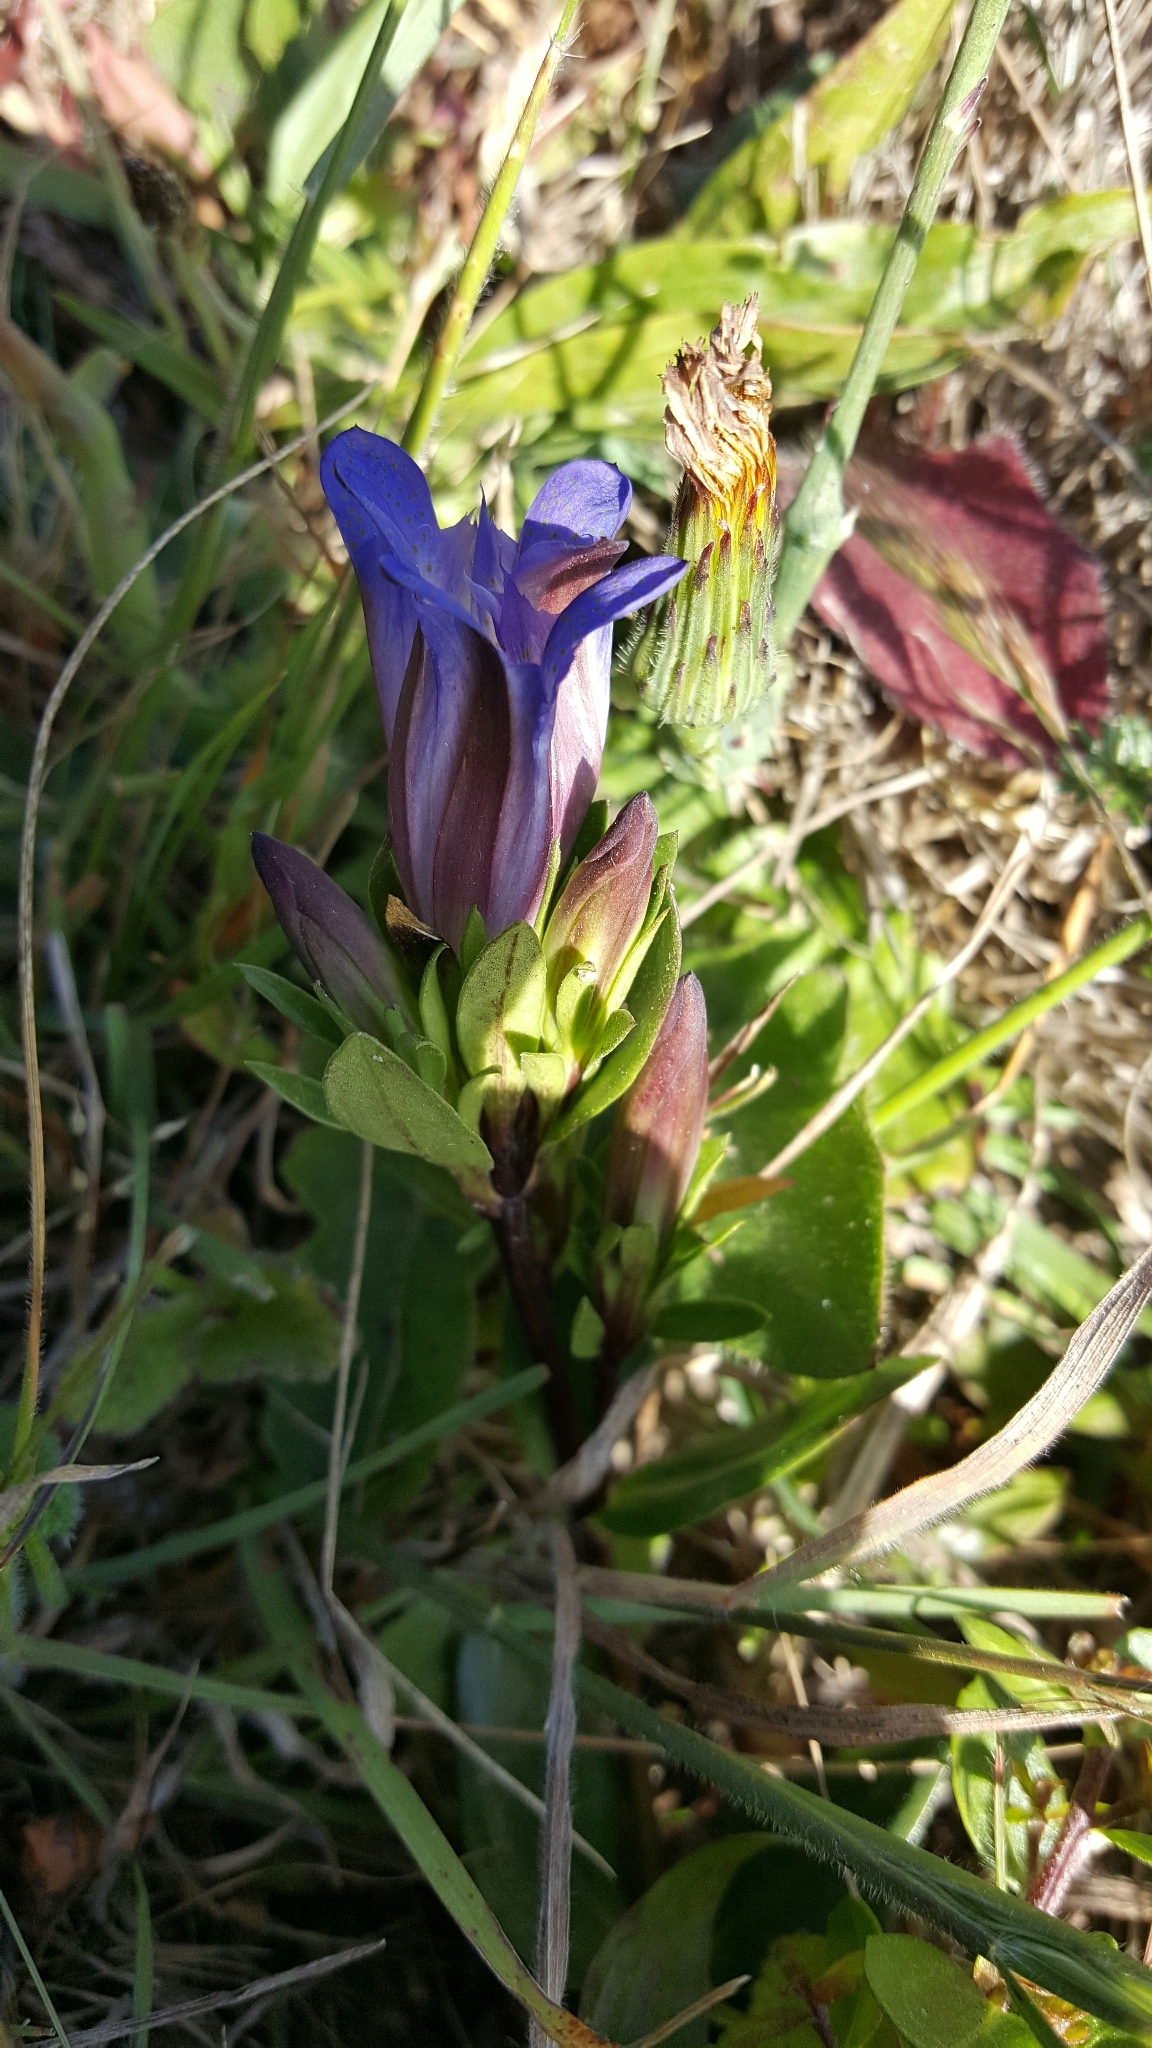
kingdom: Plantae
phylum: Tracheophyta
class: Magnoliopsida
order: Gentianales
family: Gentianaceae
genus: Gentiana
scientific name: Gentiana affinis
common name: Rocky mountain gentian
